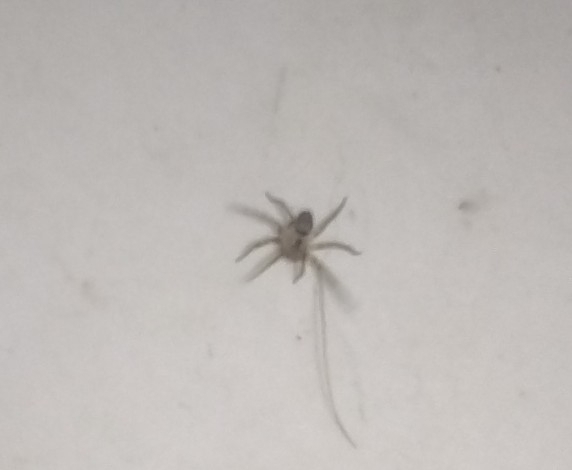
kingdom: Animalia
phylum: Arthropoda
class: Arachnida
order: Araneae
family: Oecobiidae
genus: Oecobius
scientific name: Oecobius navus
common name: Flatmesh weaver
